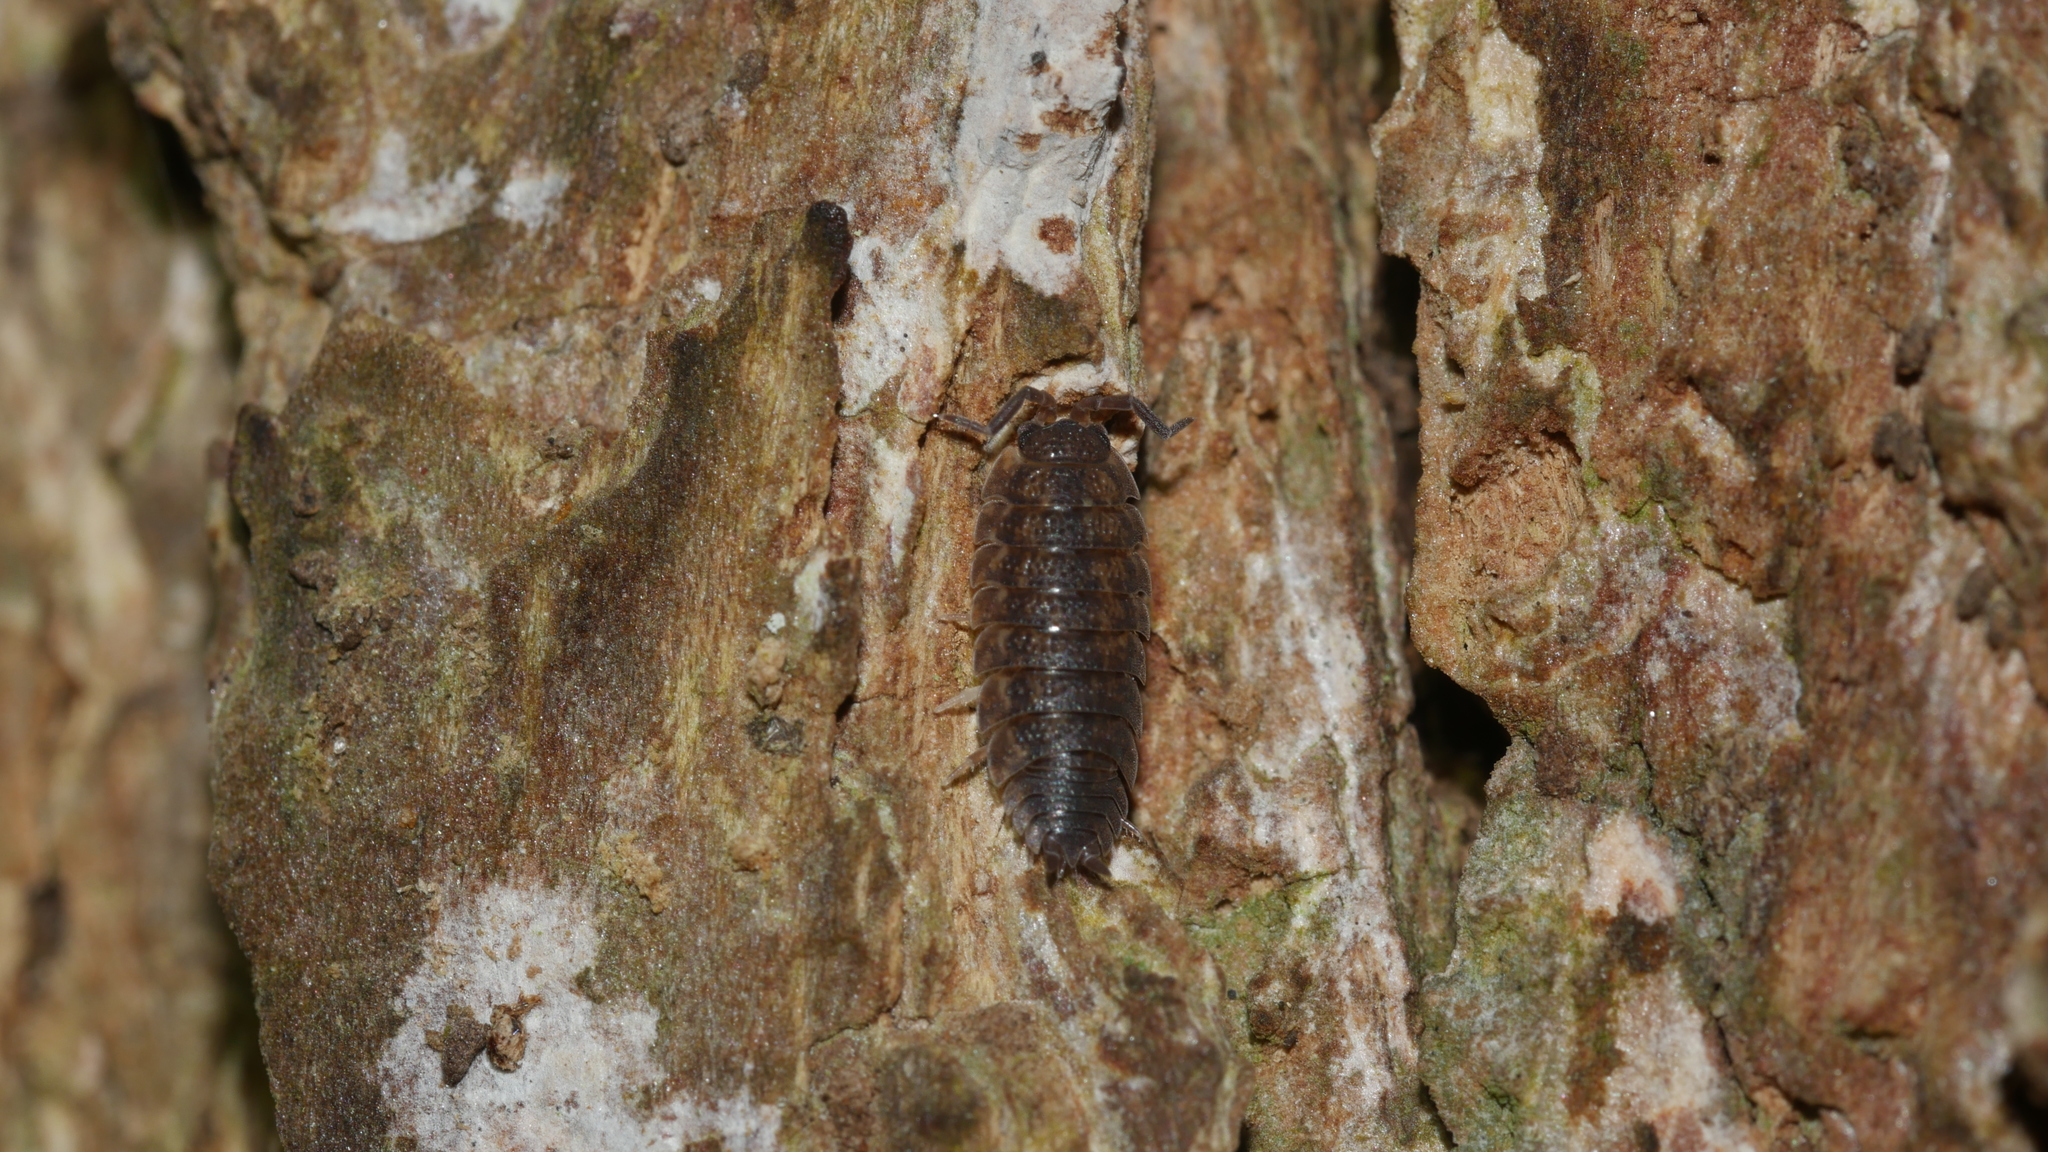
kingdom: Animalia
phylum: Arthropoda
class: Malacostraca
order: Isopoda
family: Porcellionidae
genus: Porcellio
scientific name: Porcellio scaber
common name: Common rough woodlouse
